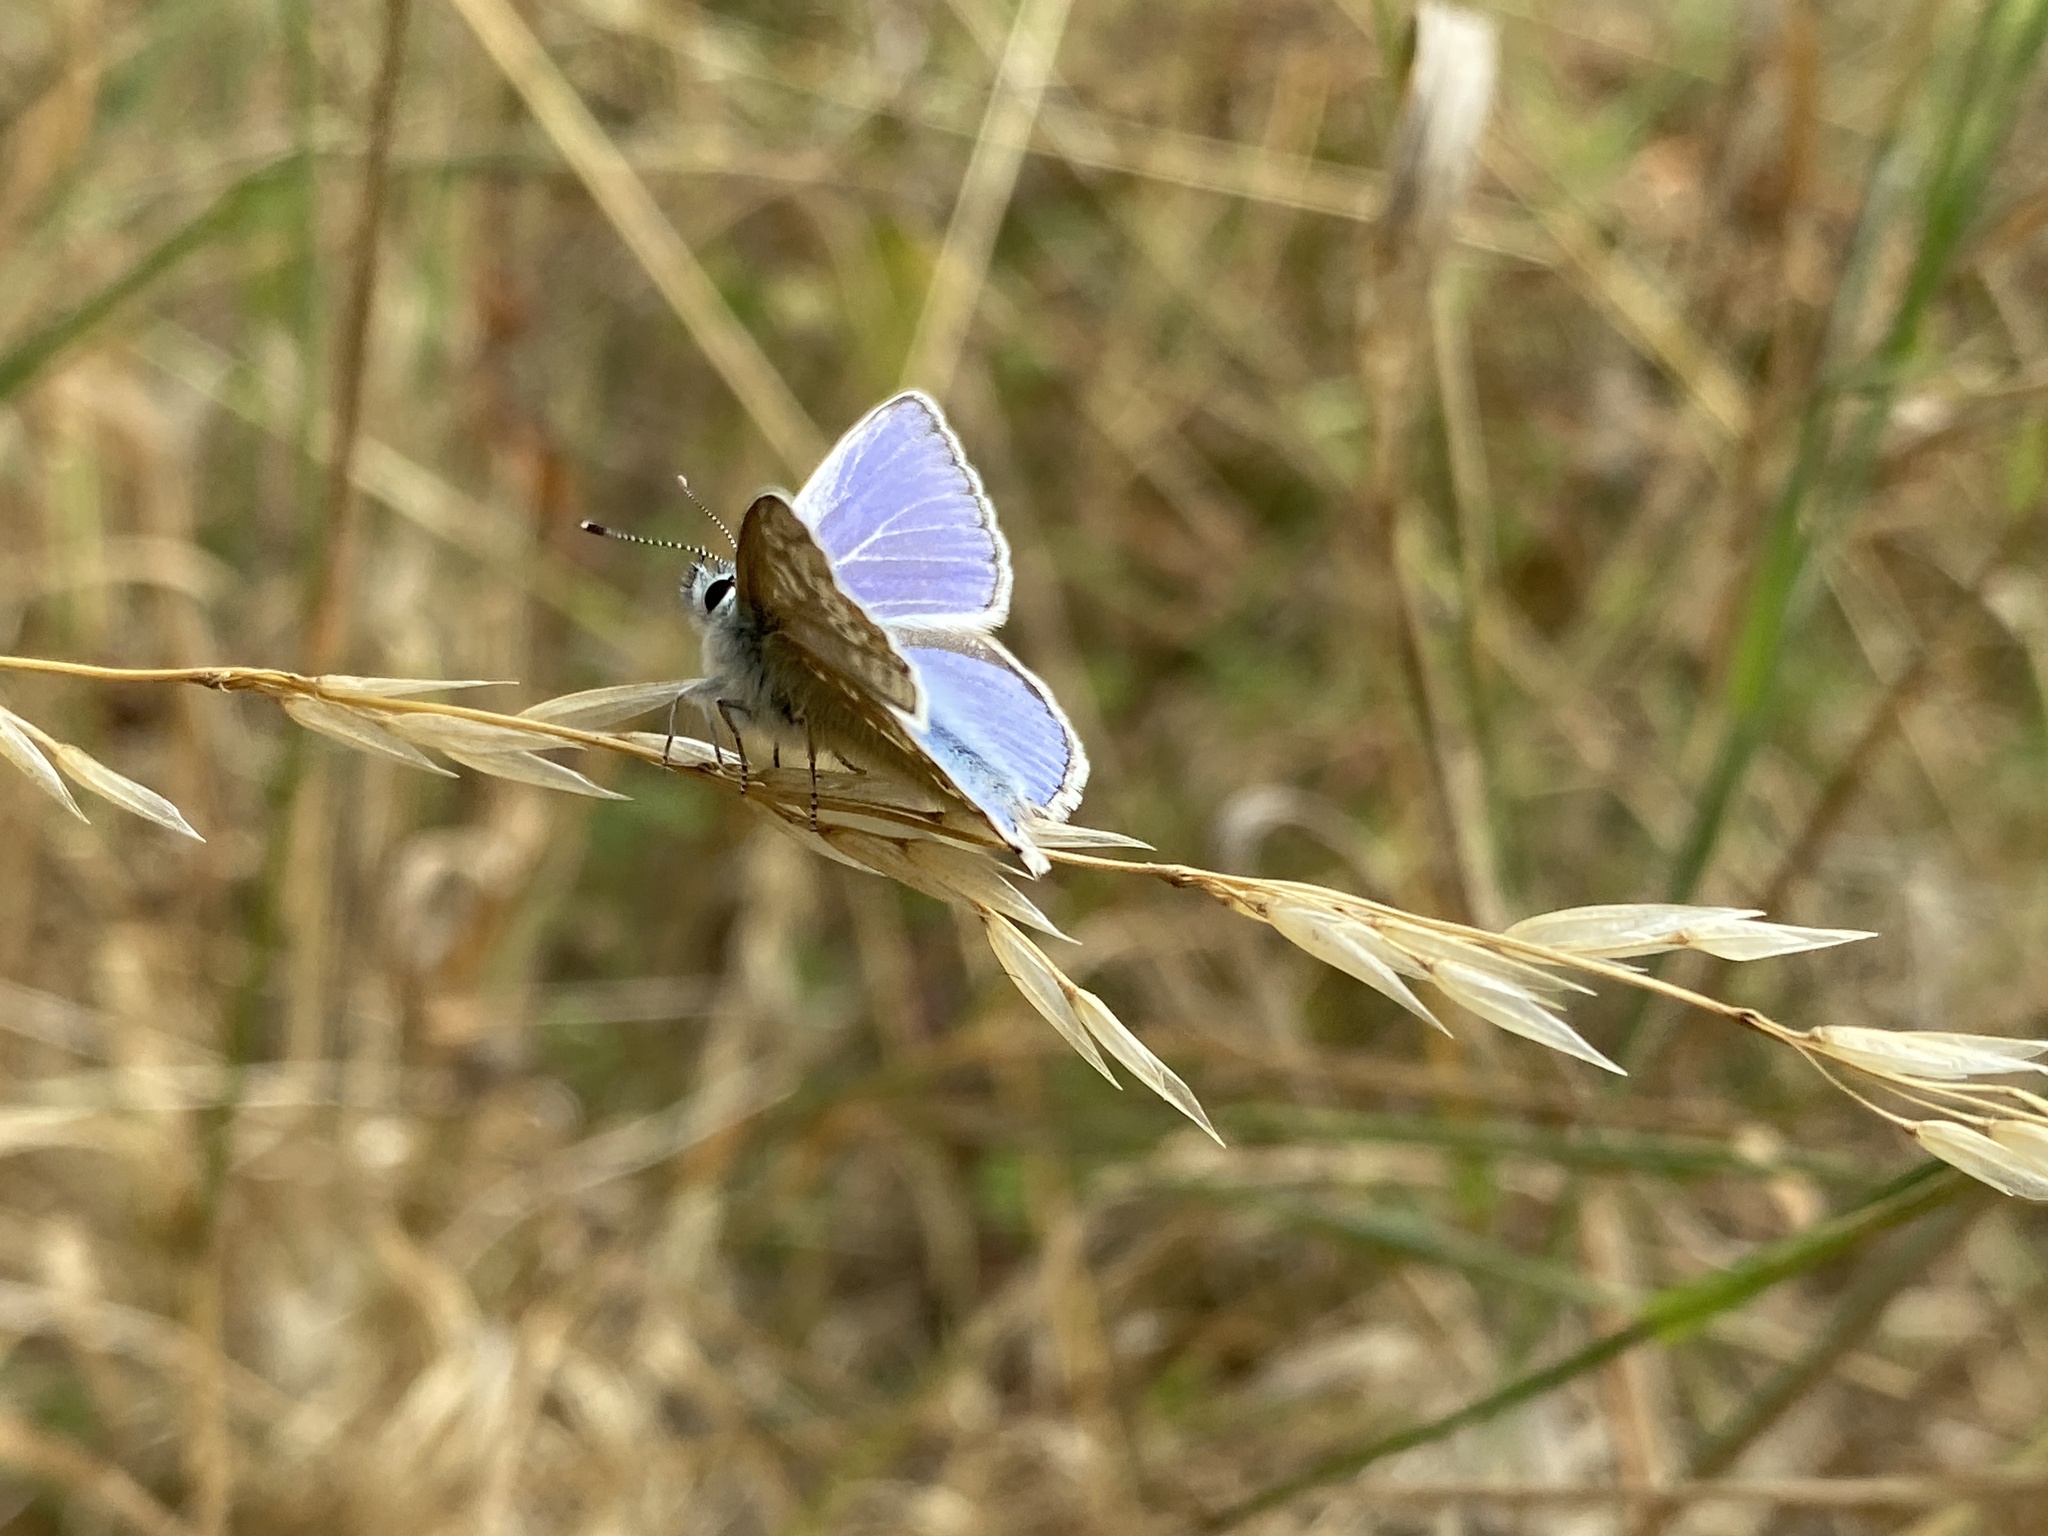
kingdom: Animalia
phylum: Arthropoda
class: Insecta
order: Lepidoptera
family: Lycaenidae
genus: Polyommatus
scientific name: Polyommatus icarus
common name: Common blue
